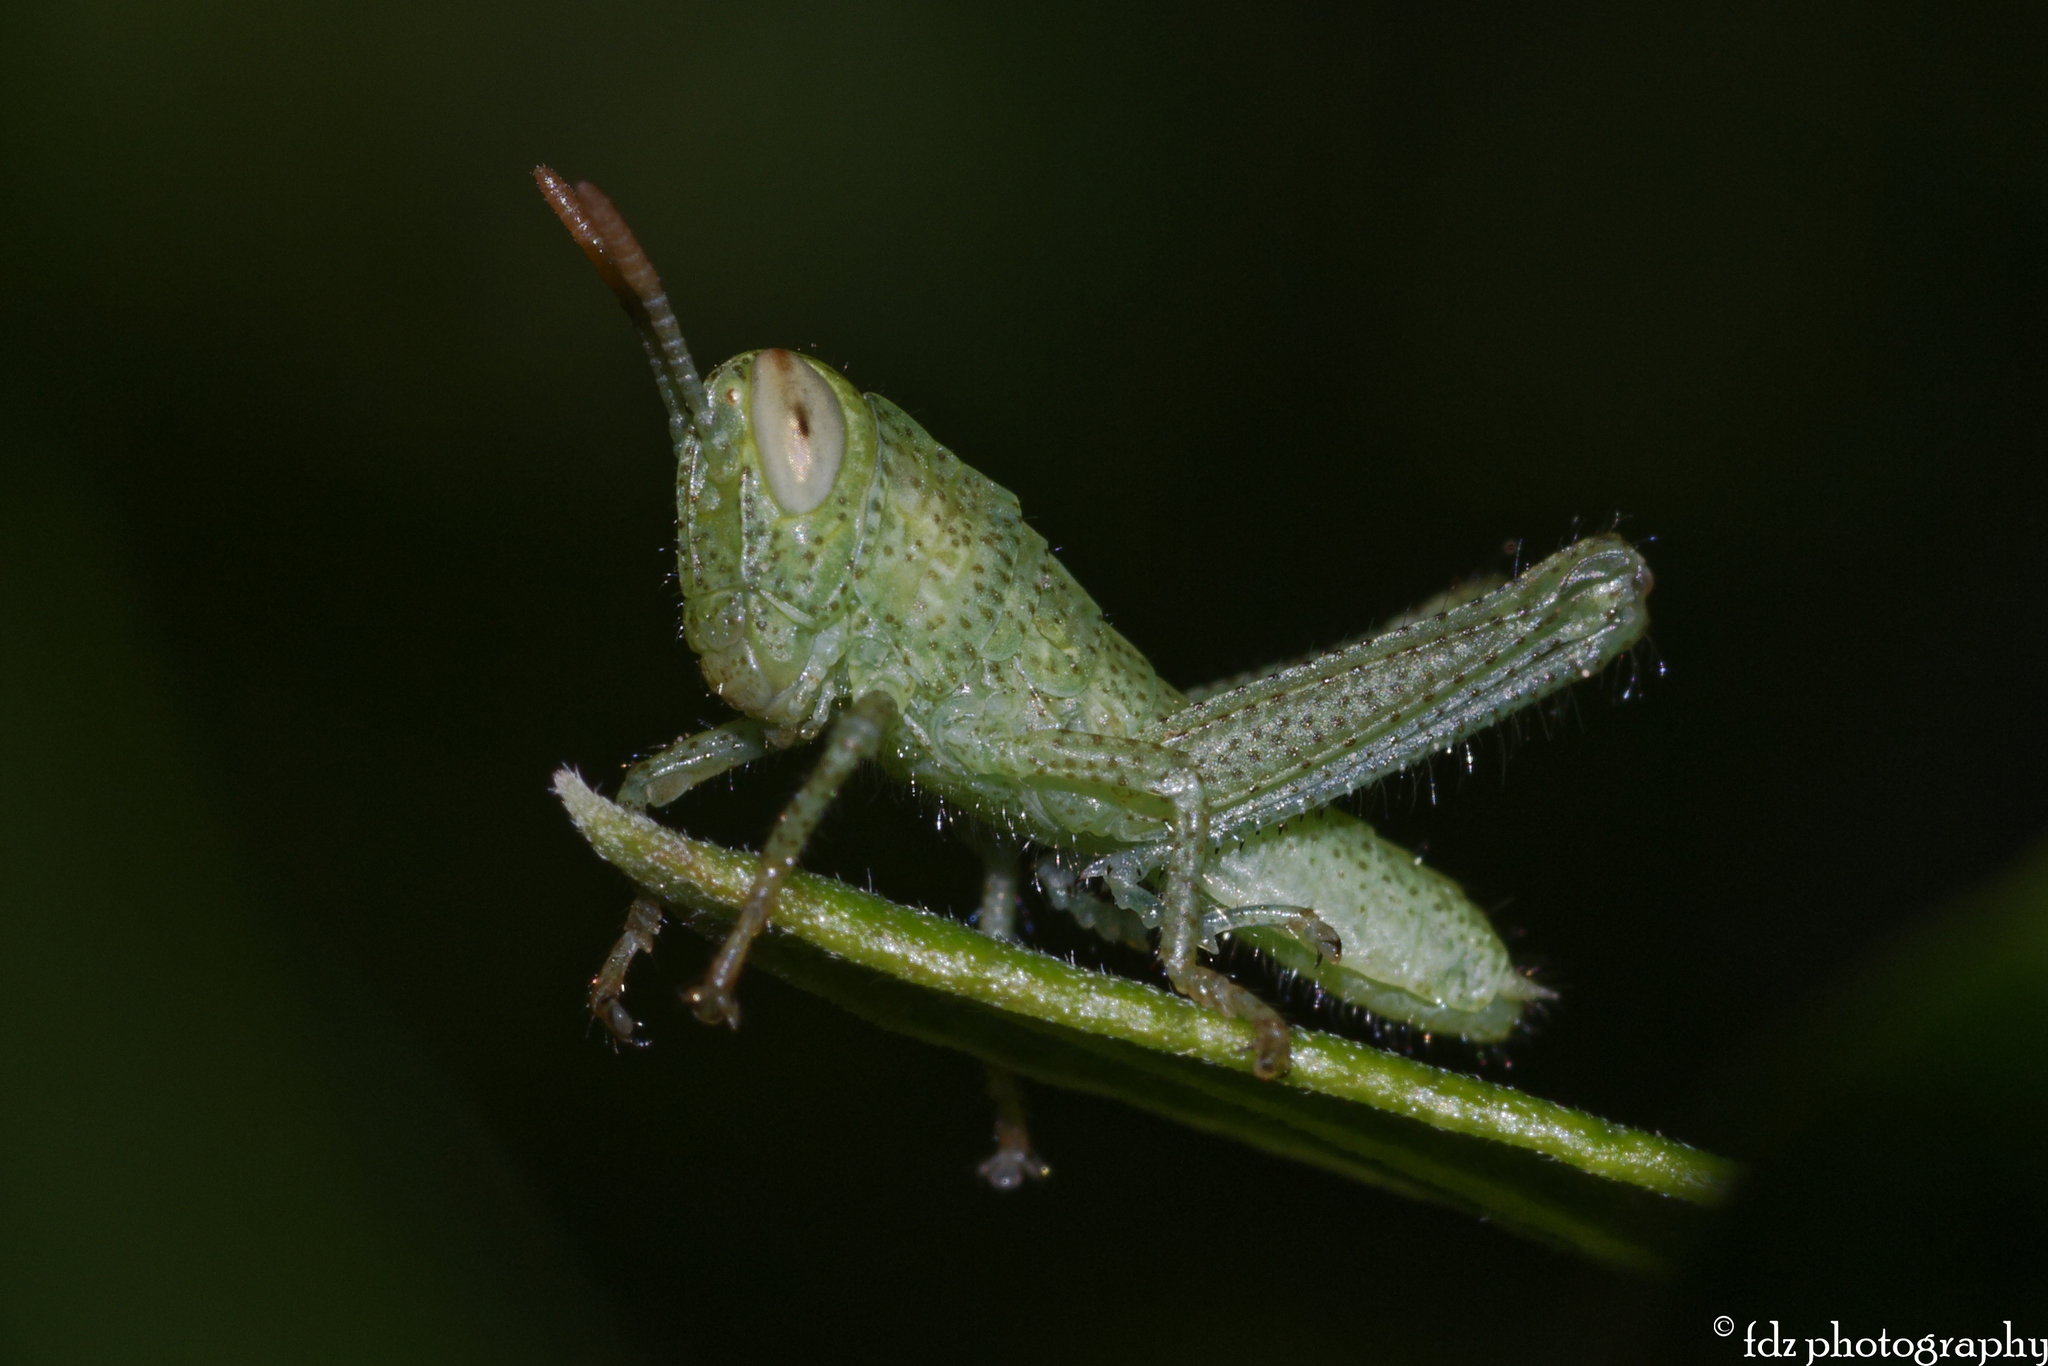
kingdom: Animalia
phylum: Arthropoda
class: Insecta
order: Orthoptera
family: Acrididae
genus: Anacridium
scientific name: Anacridium aegyptium
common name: Egyptian grasshopper
